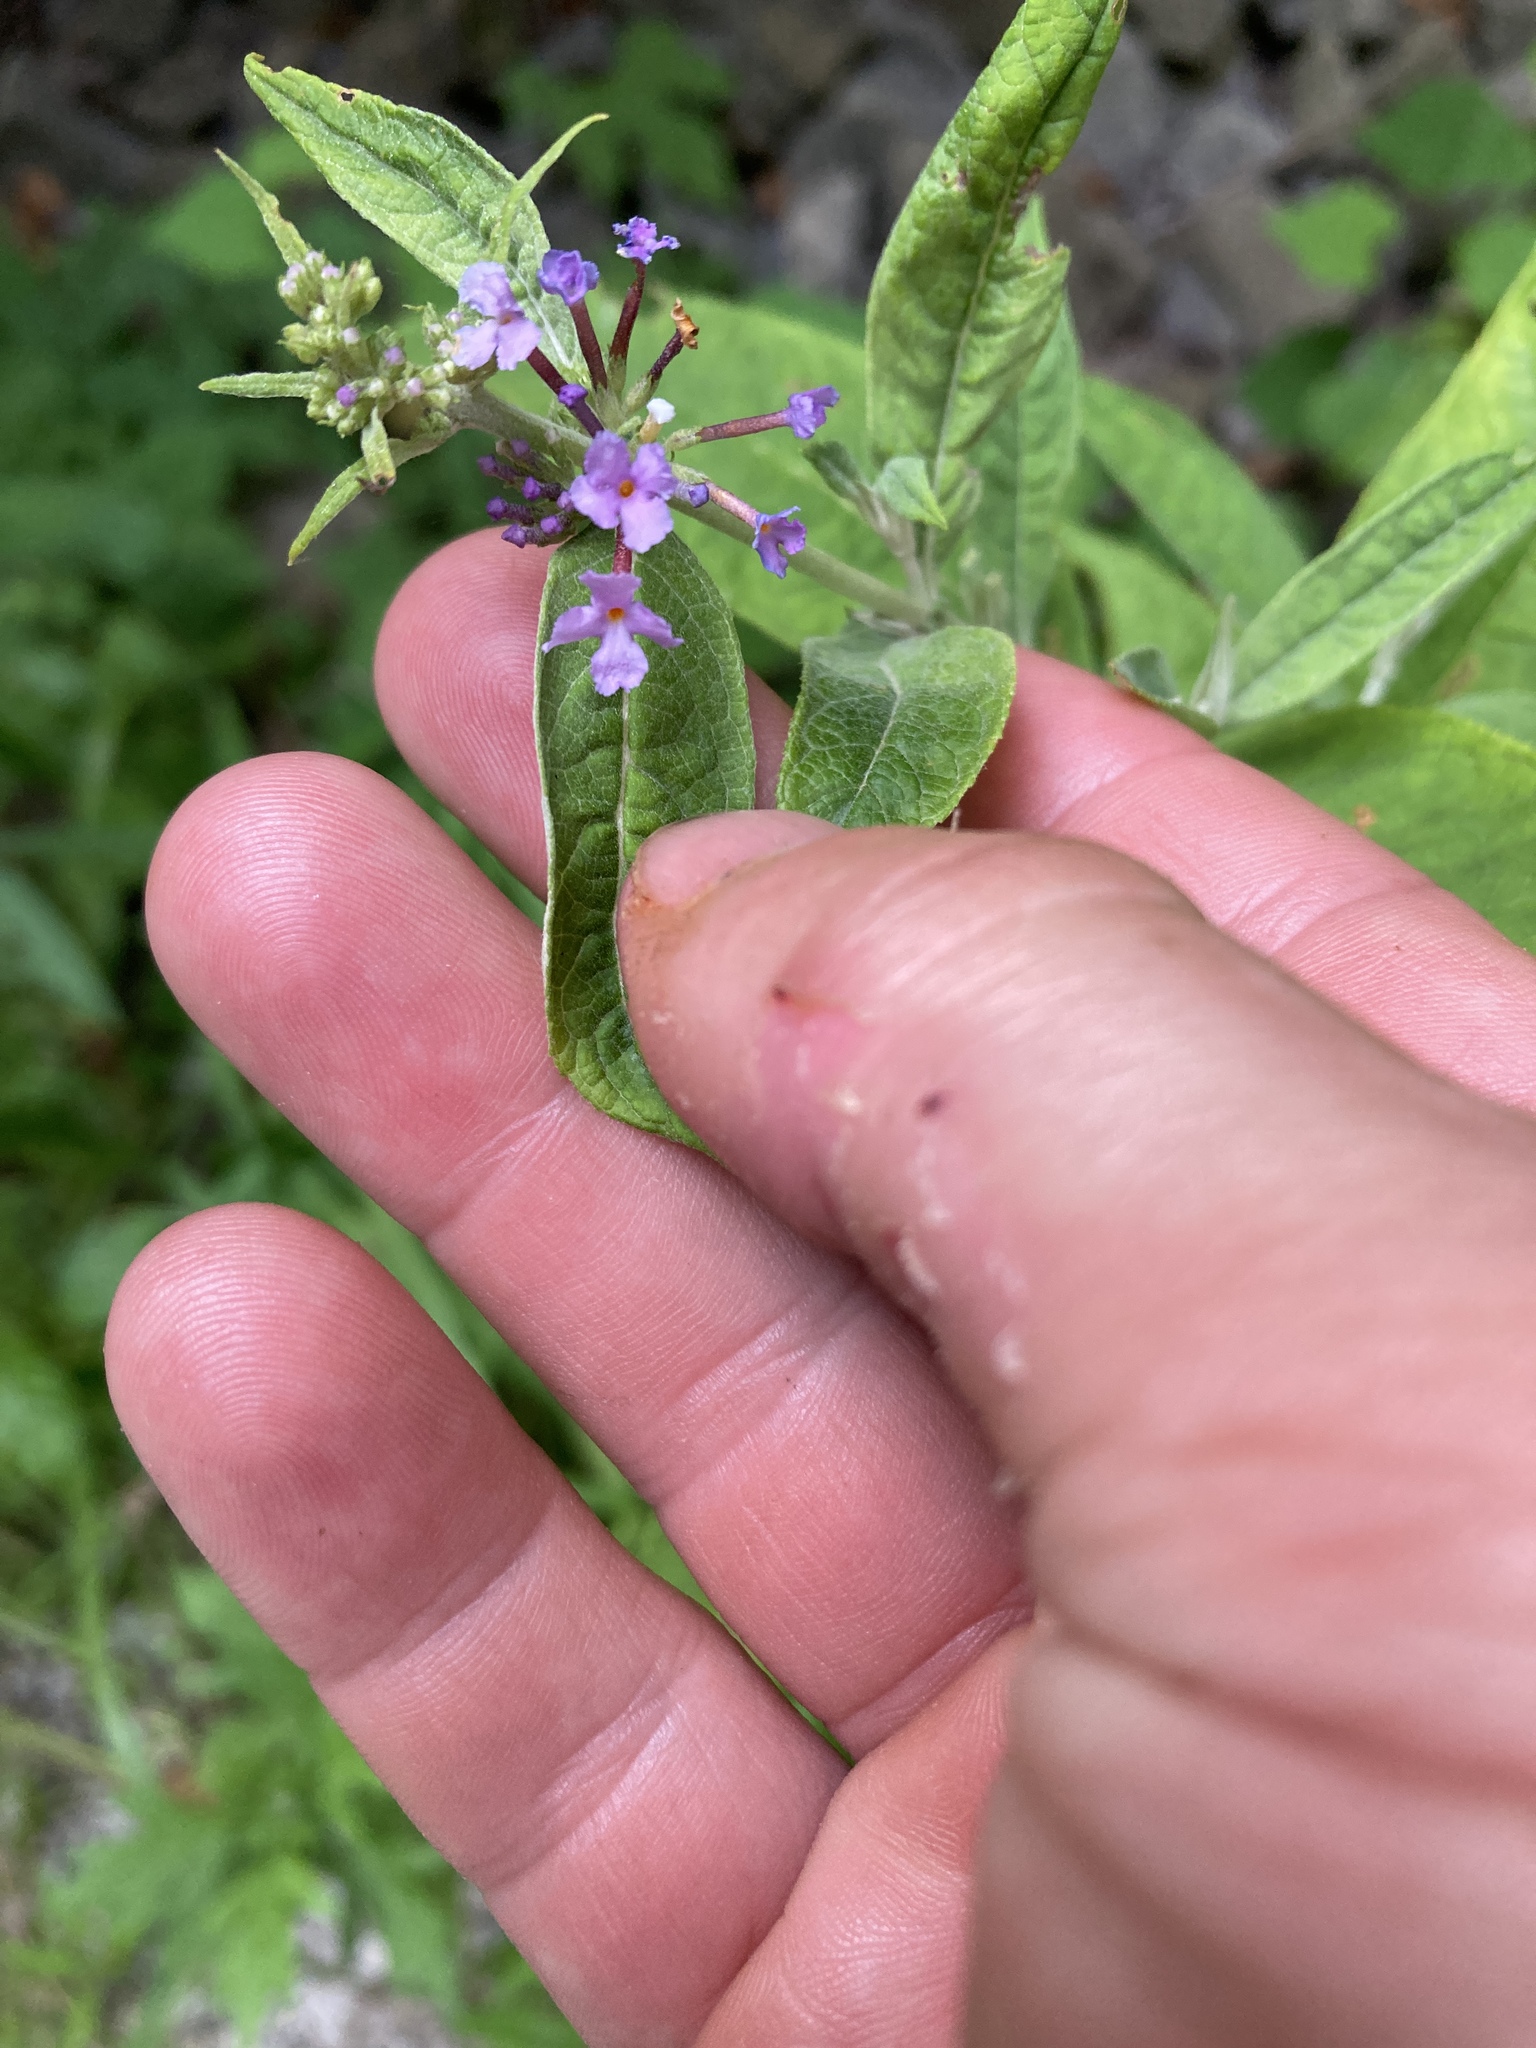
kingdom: Plantae
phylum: Tracheophyta
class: Magnoliopsida
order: Lamiales
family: Scrophulariaceae
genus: Buddleja
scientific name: Buddleja davidii
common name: Butterfly-bush
